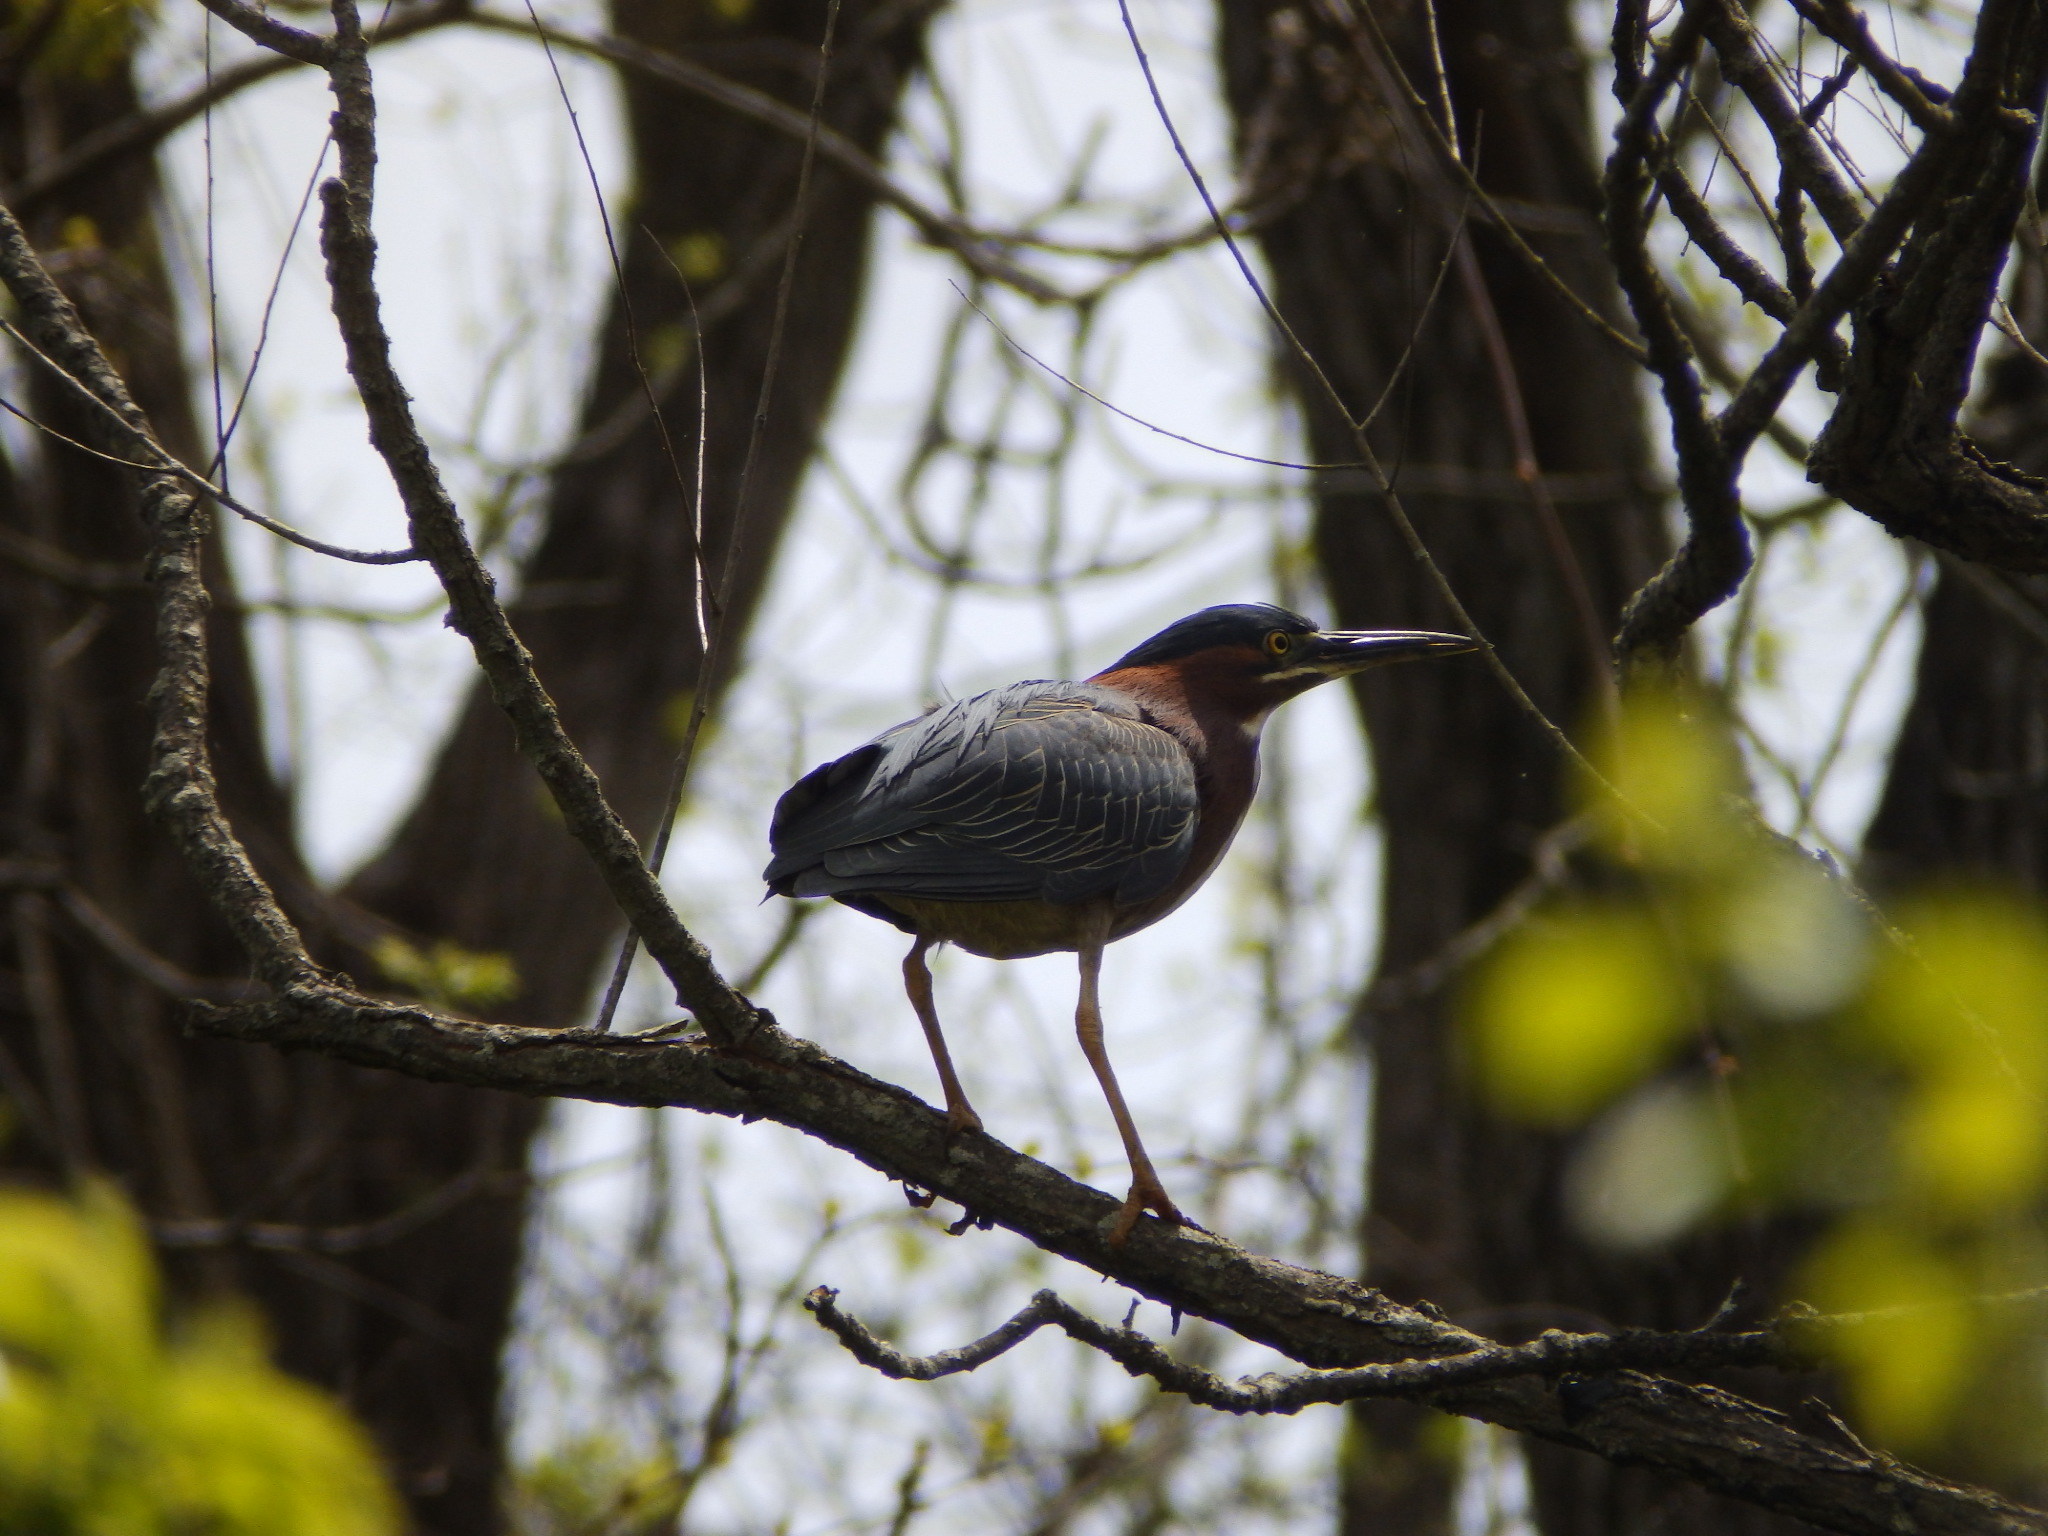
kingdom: Animalia
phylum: Chordata
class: Aves
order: Pelecaniformes
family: Ardeidae
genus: Butorides
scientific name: Butorides virescens
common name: Green heron
